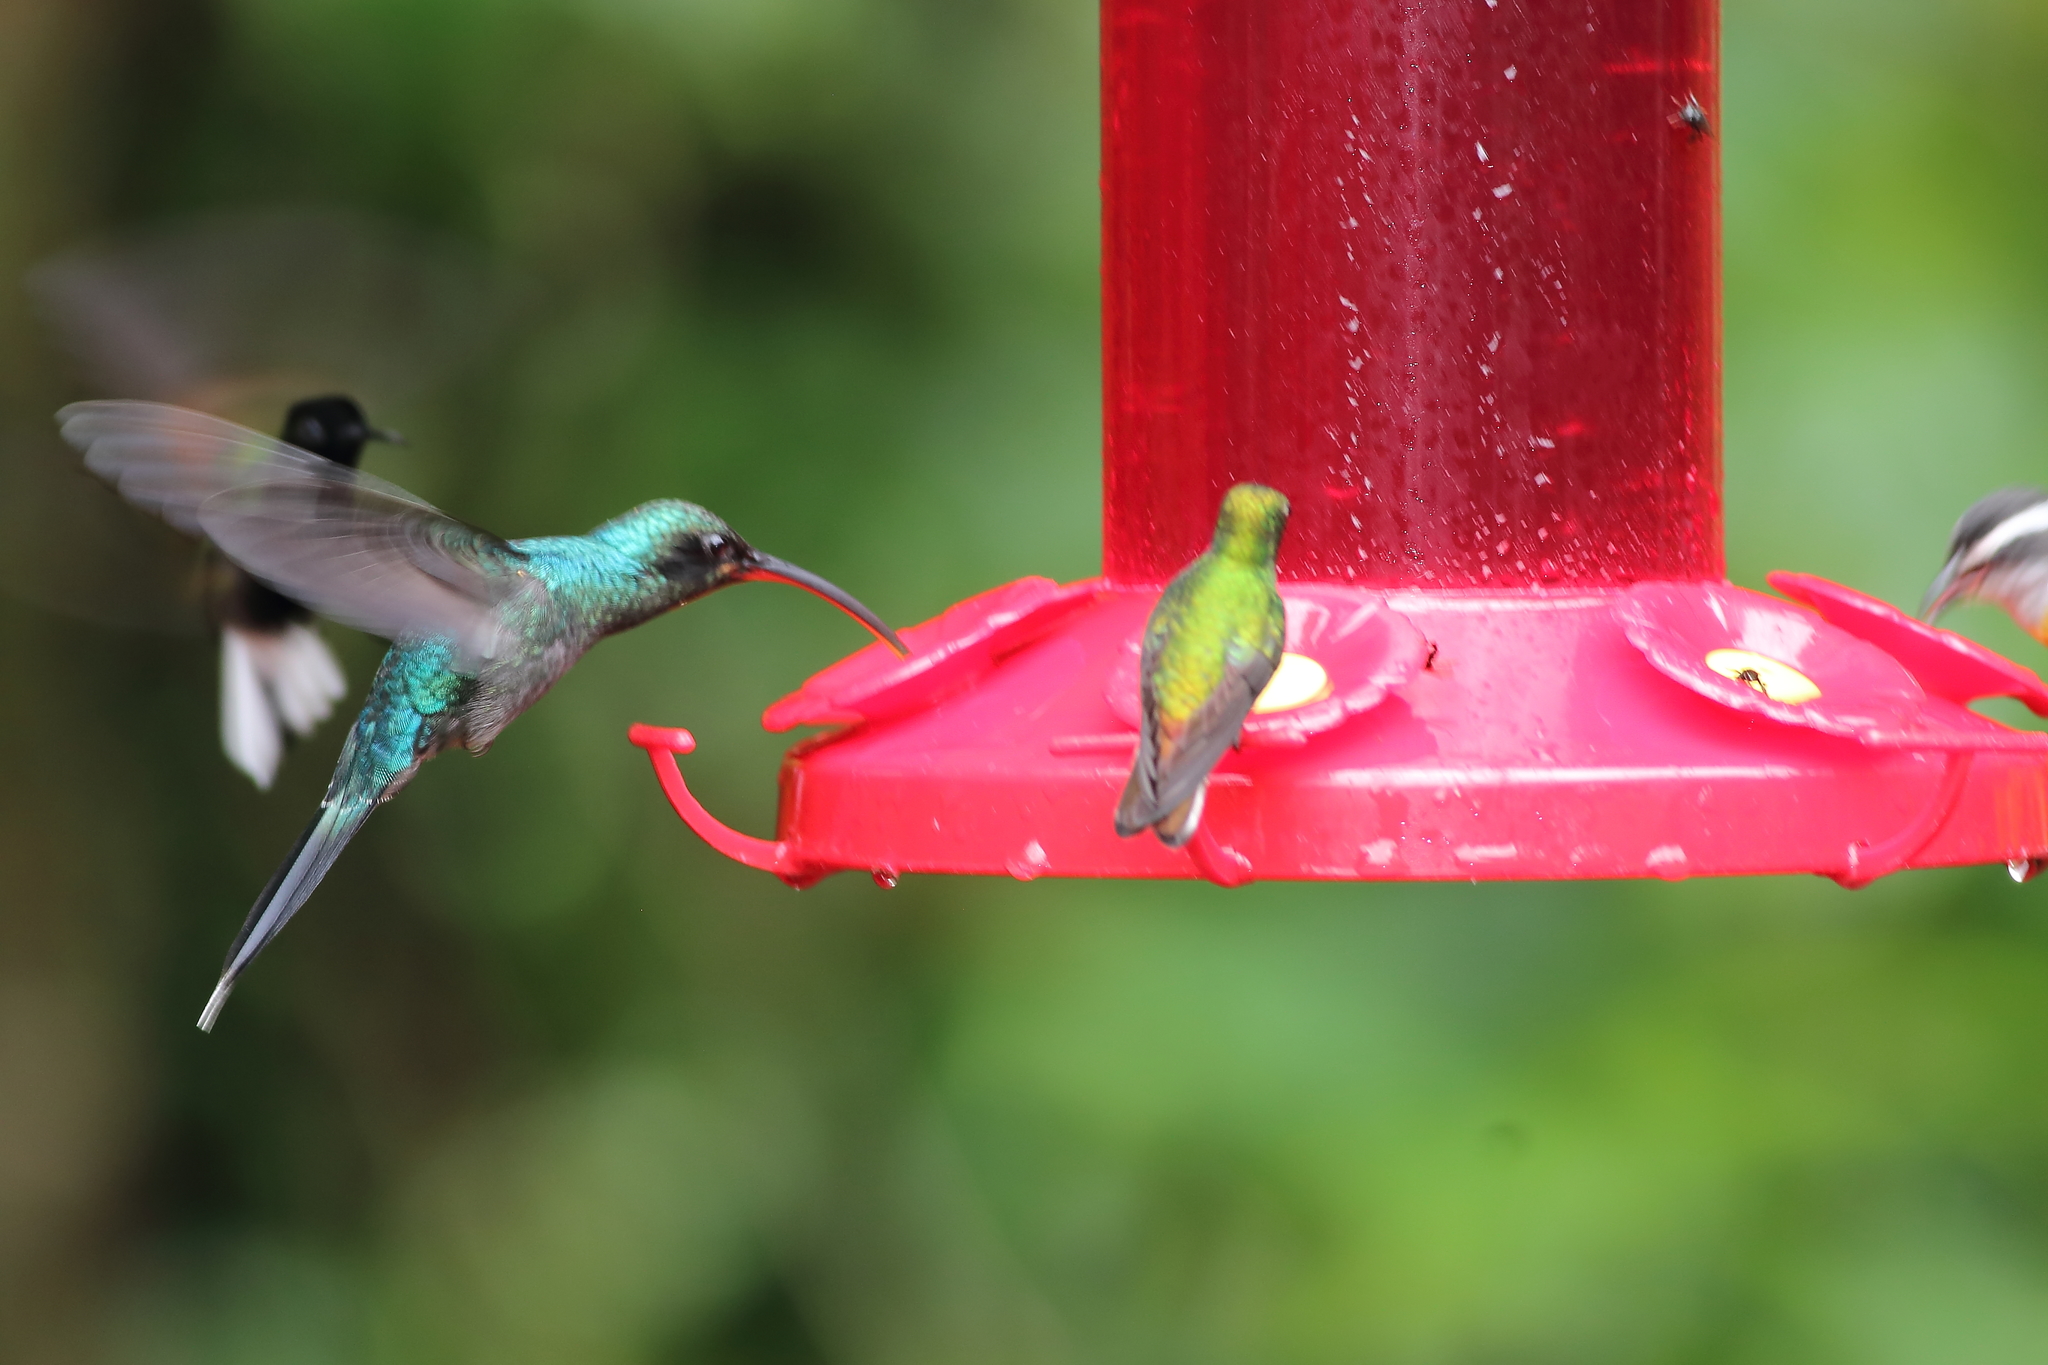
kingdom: Animalia
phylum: Chordata
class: Aves
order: Apodiformes
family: Trochilidae
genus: Phaethornis
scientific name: Phaethornis guy
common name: Green hermit
